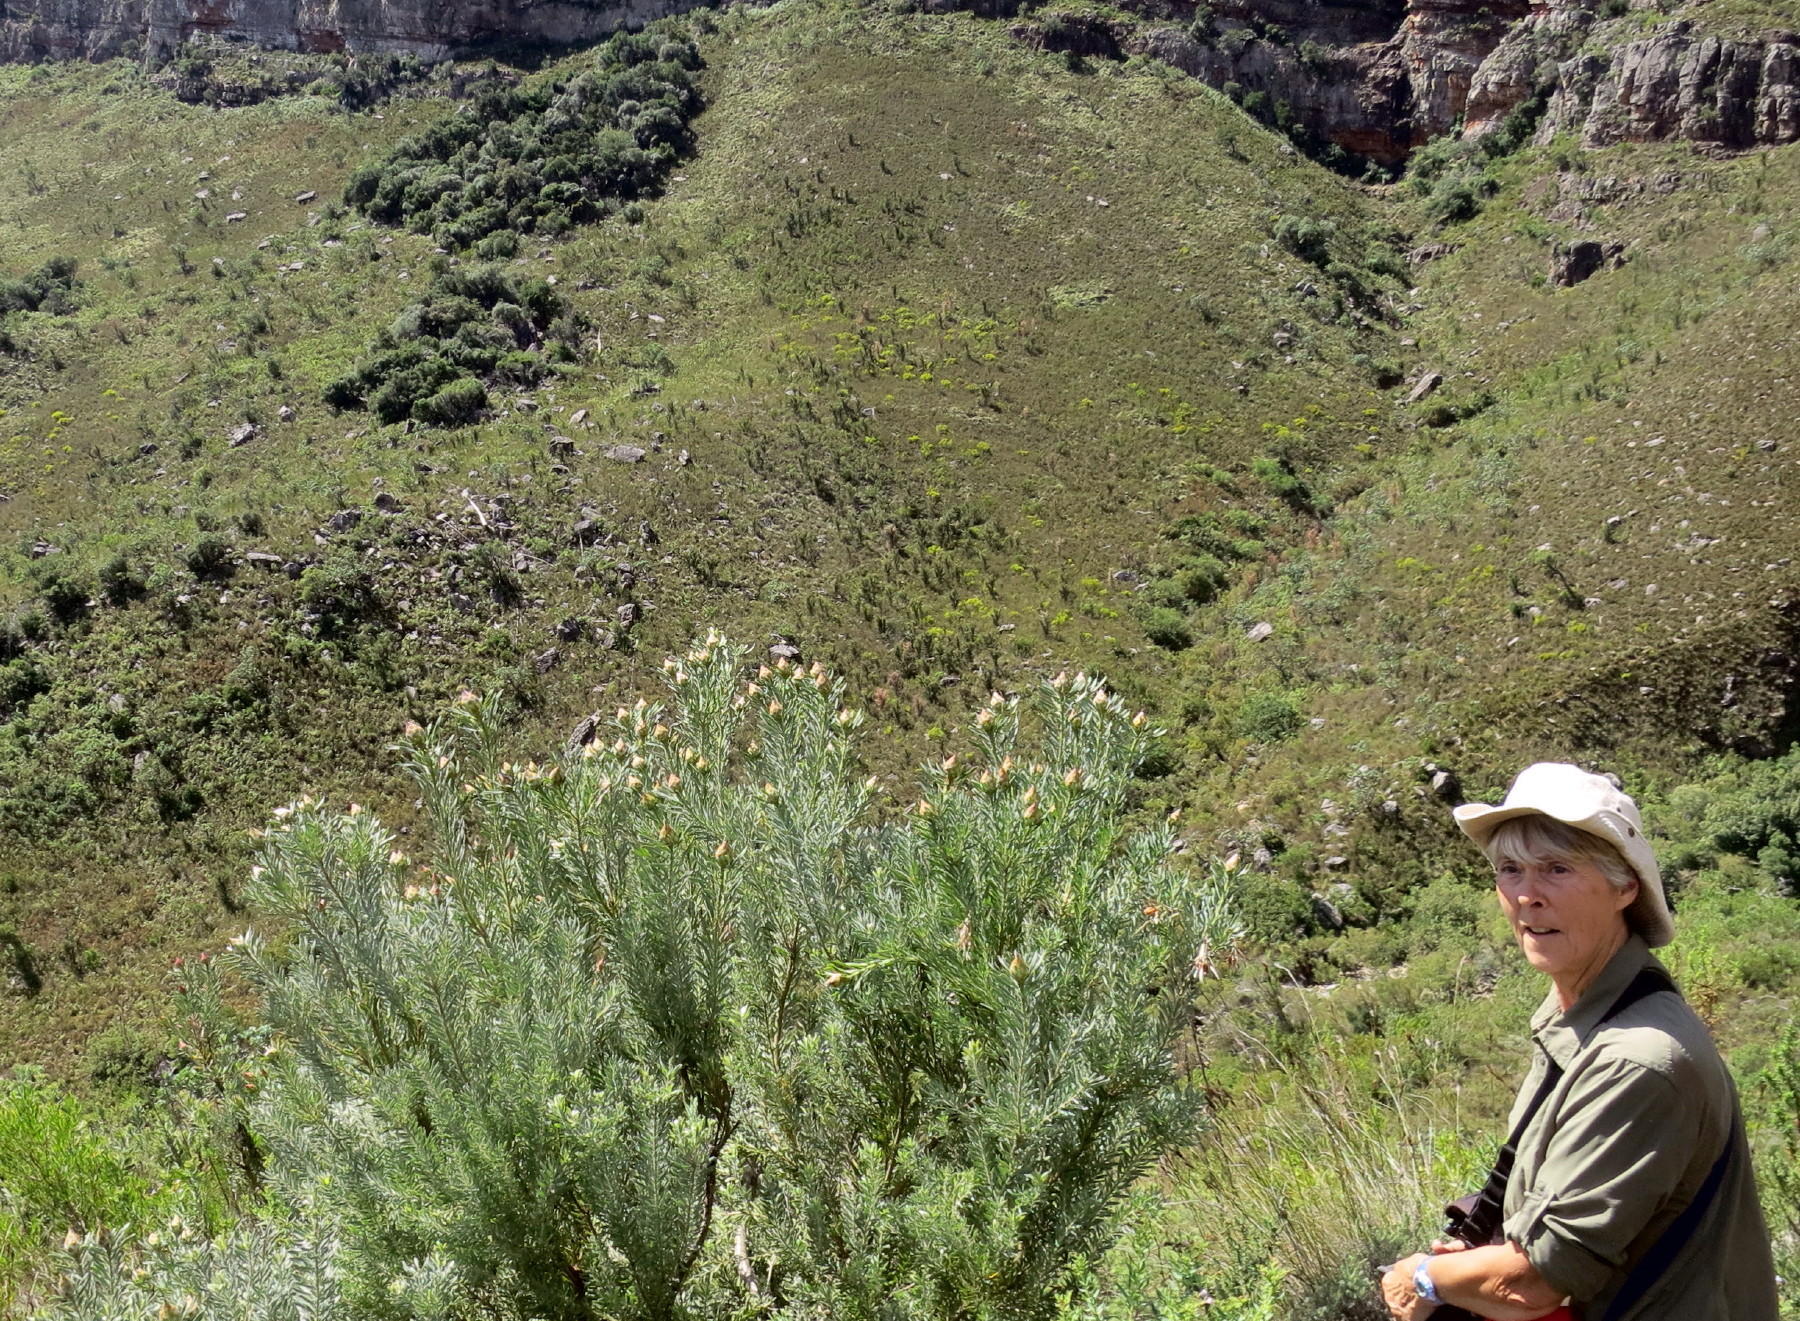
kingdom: Plantae
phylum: Tracheophyta
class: Magnoliopsida
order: Proteales
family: Proteaceae
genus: Leucadendron
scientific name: Leucadendron rubrum
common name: Spinning top
